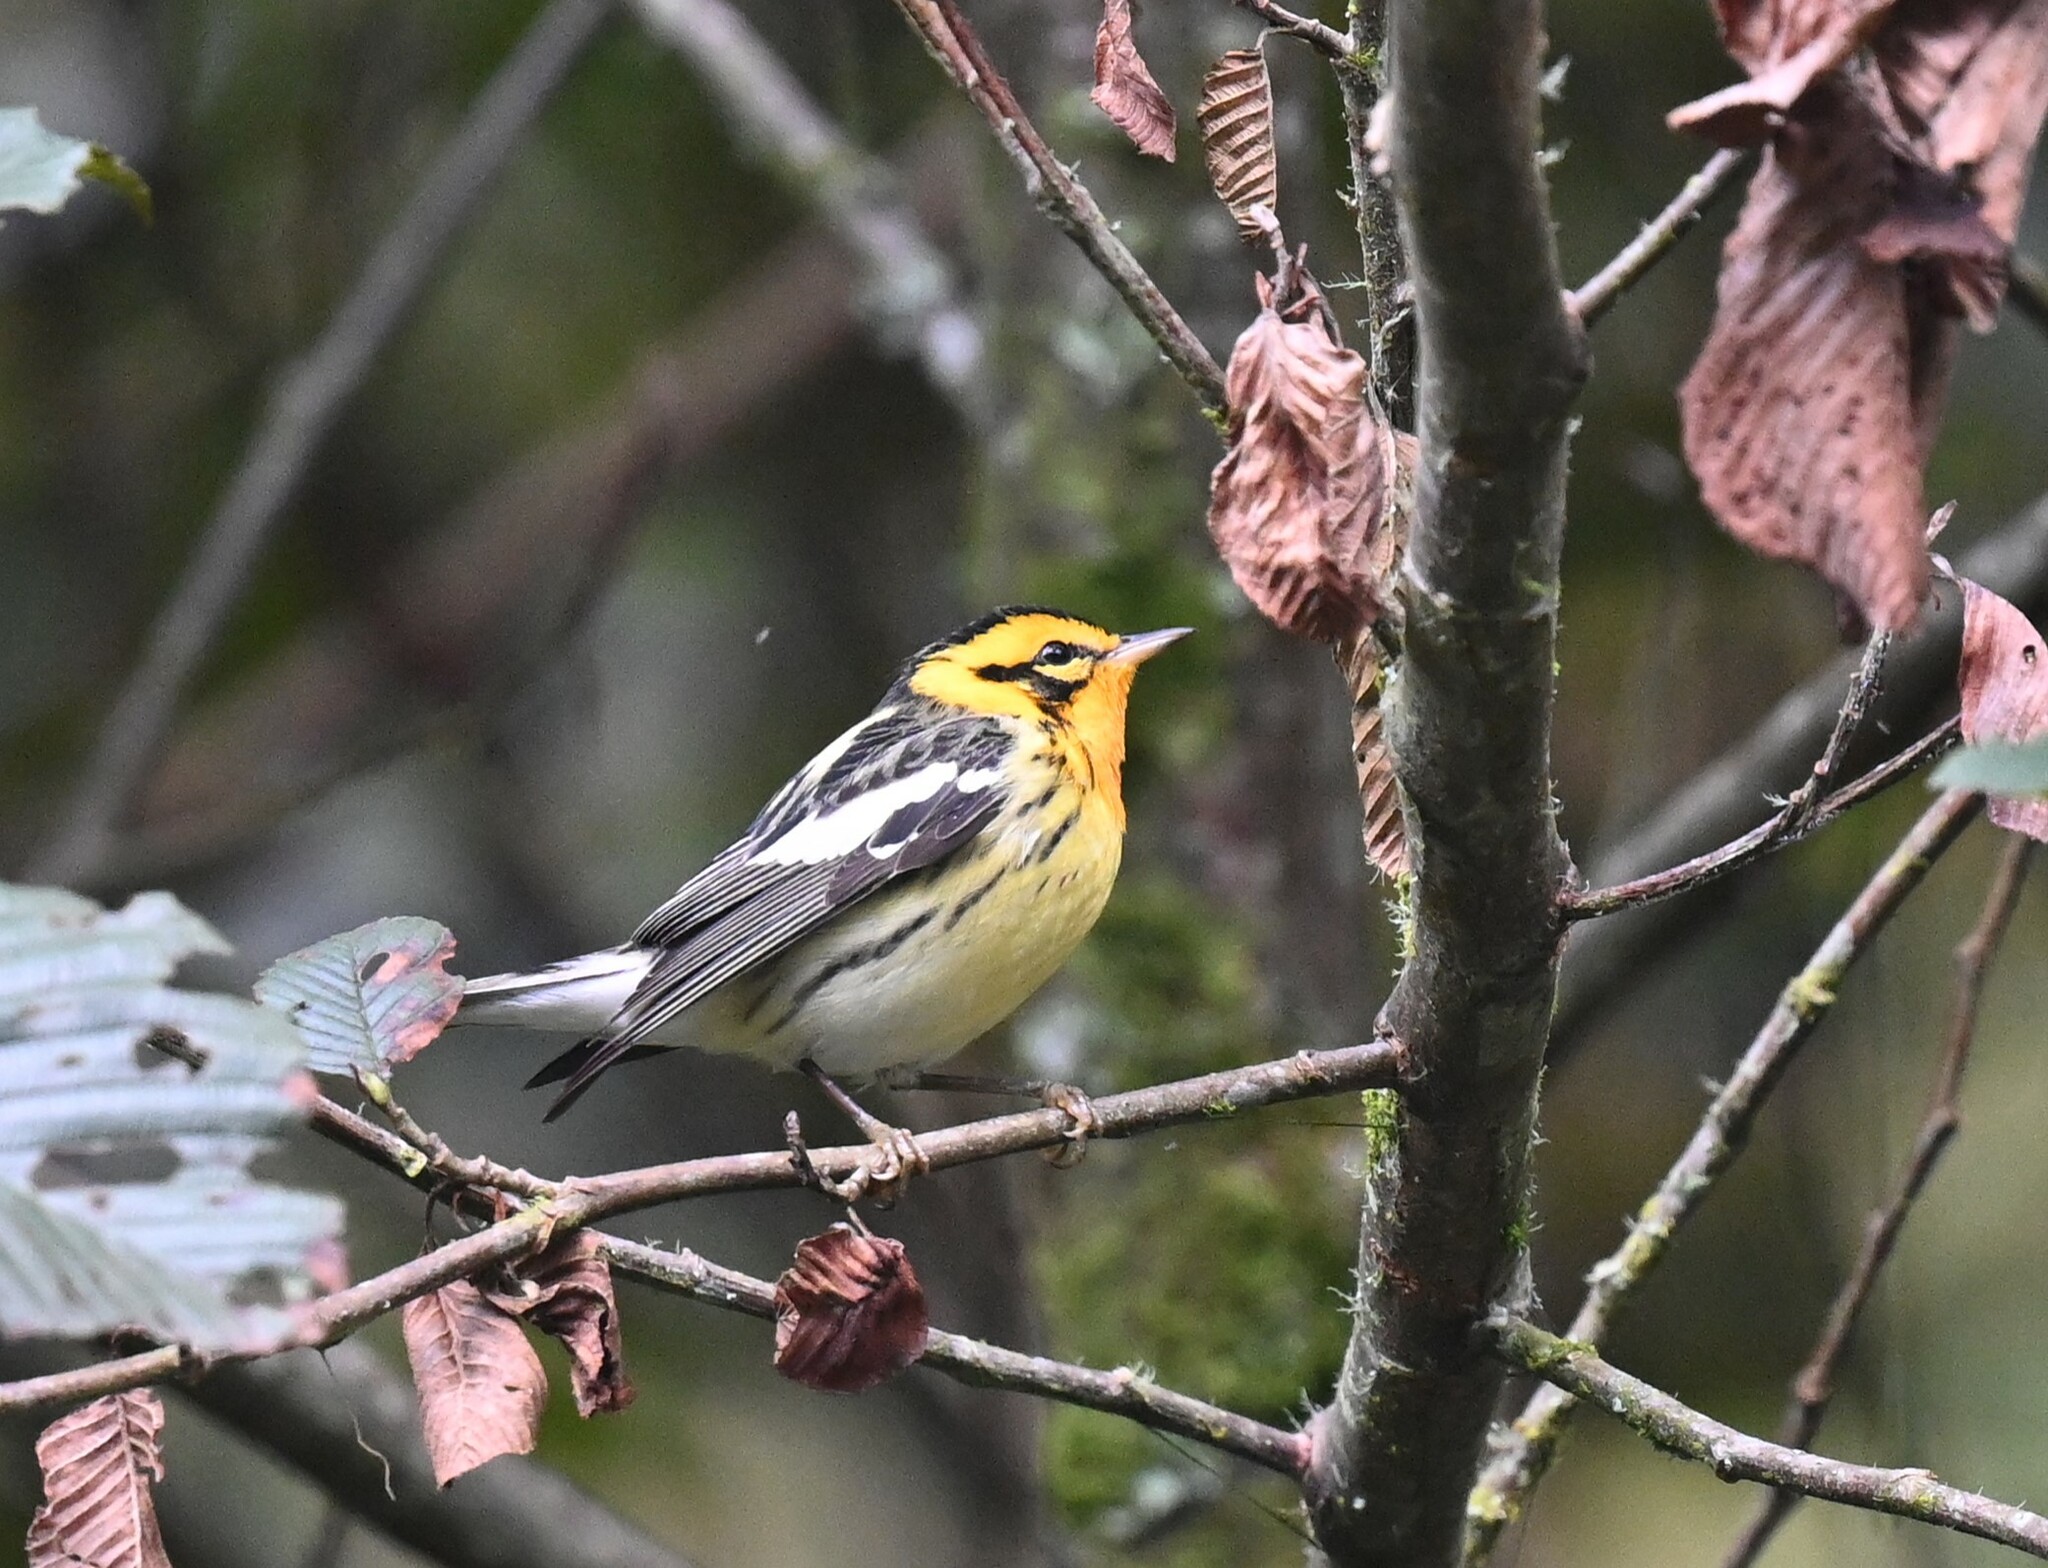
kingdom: Animalia
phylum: Chordata
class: Aves
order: Passeriformes
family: Parulidae
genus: Setophaga
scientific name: Setophaga fusca
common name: Blackburnian warbler
